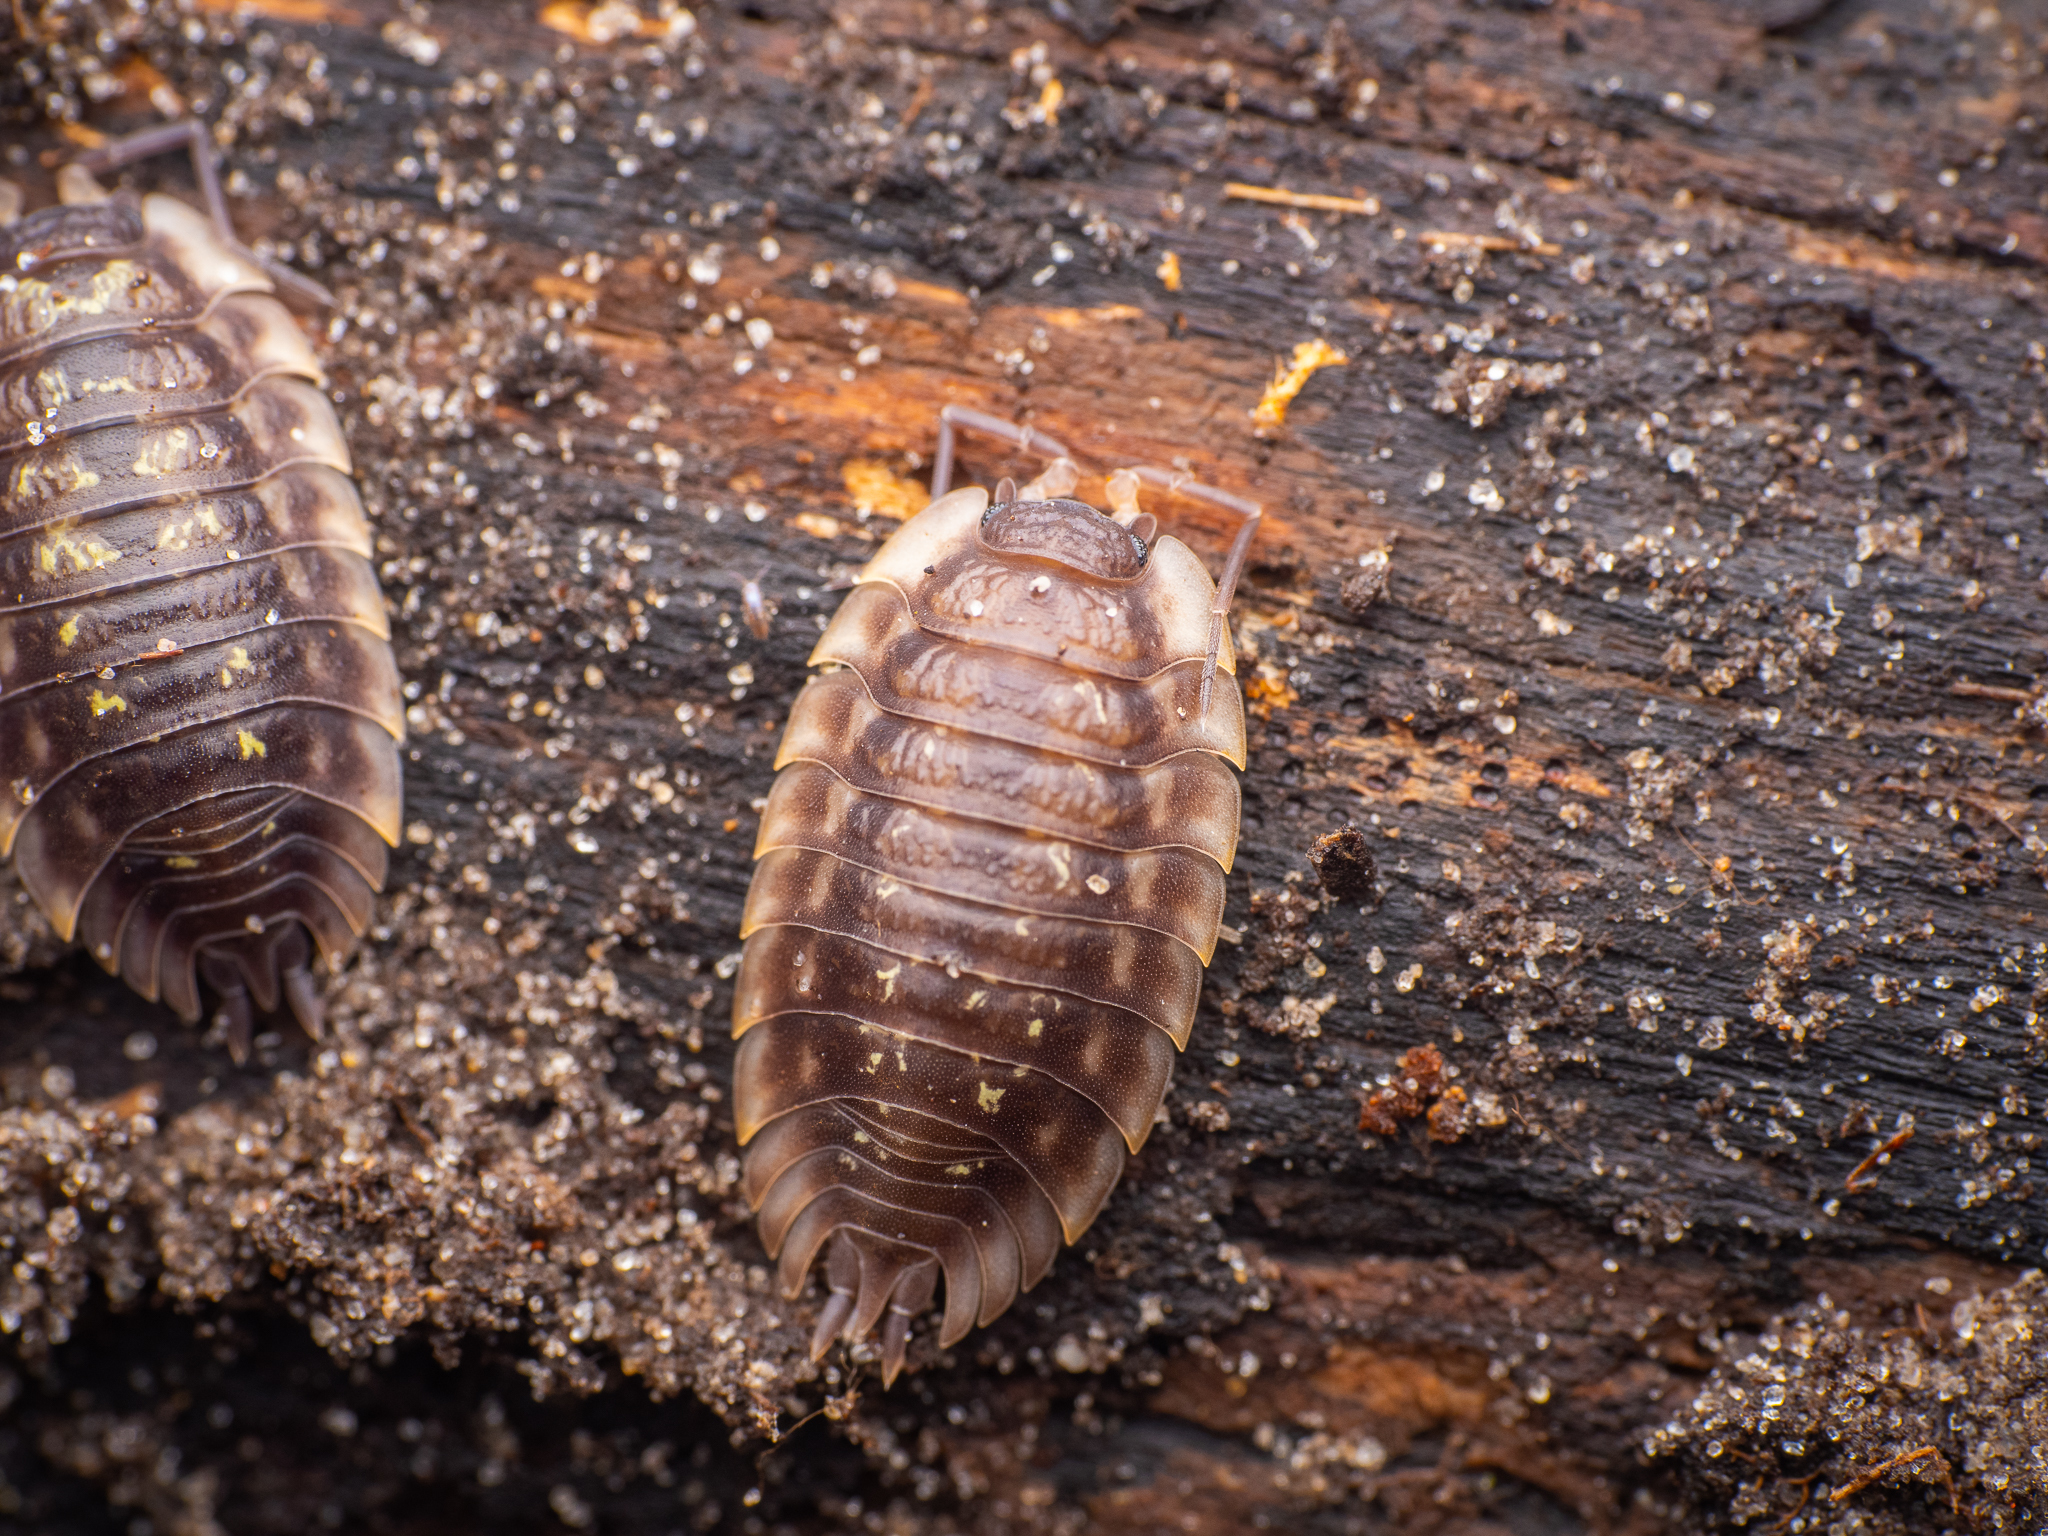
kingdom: Animalia
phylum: Arthropoda
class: Malacostraca
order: Isopoda
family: Oniscidae
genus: Oniscus
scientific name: Oniscus asellus
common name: Common shiny woodlouse
